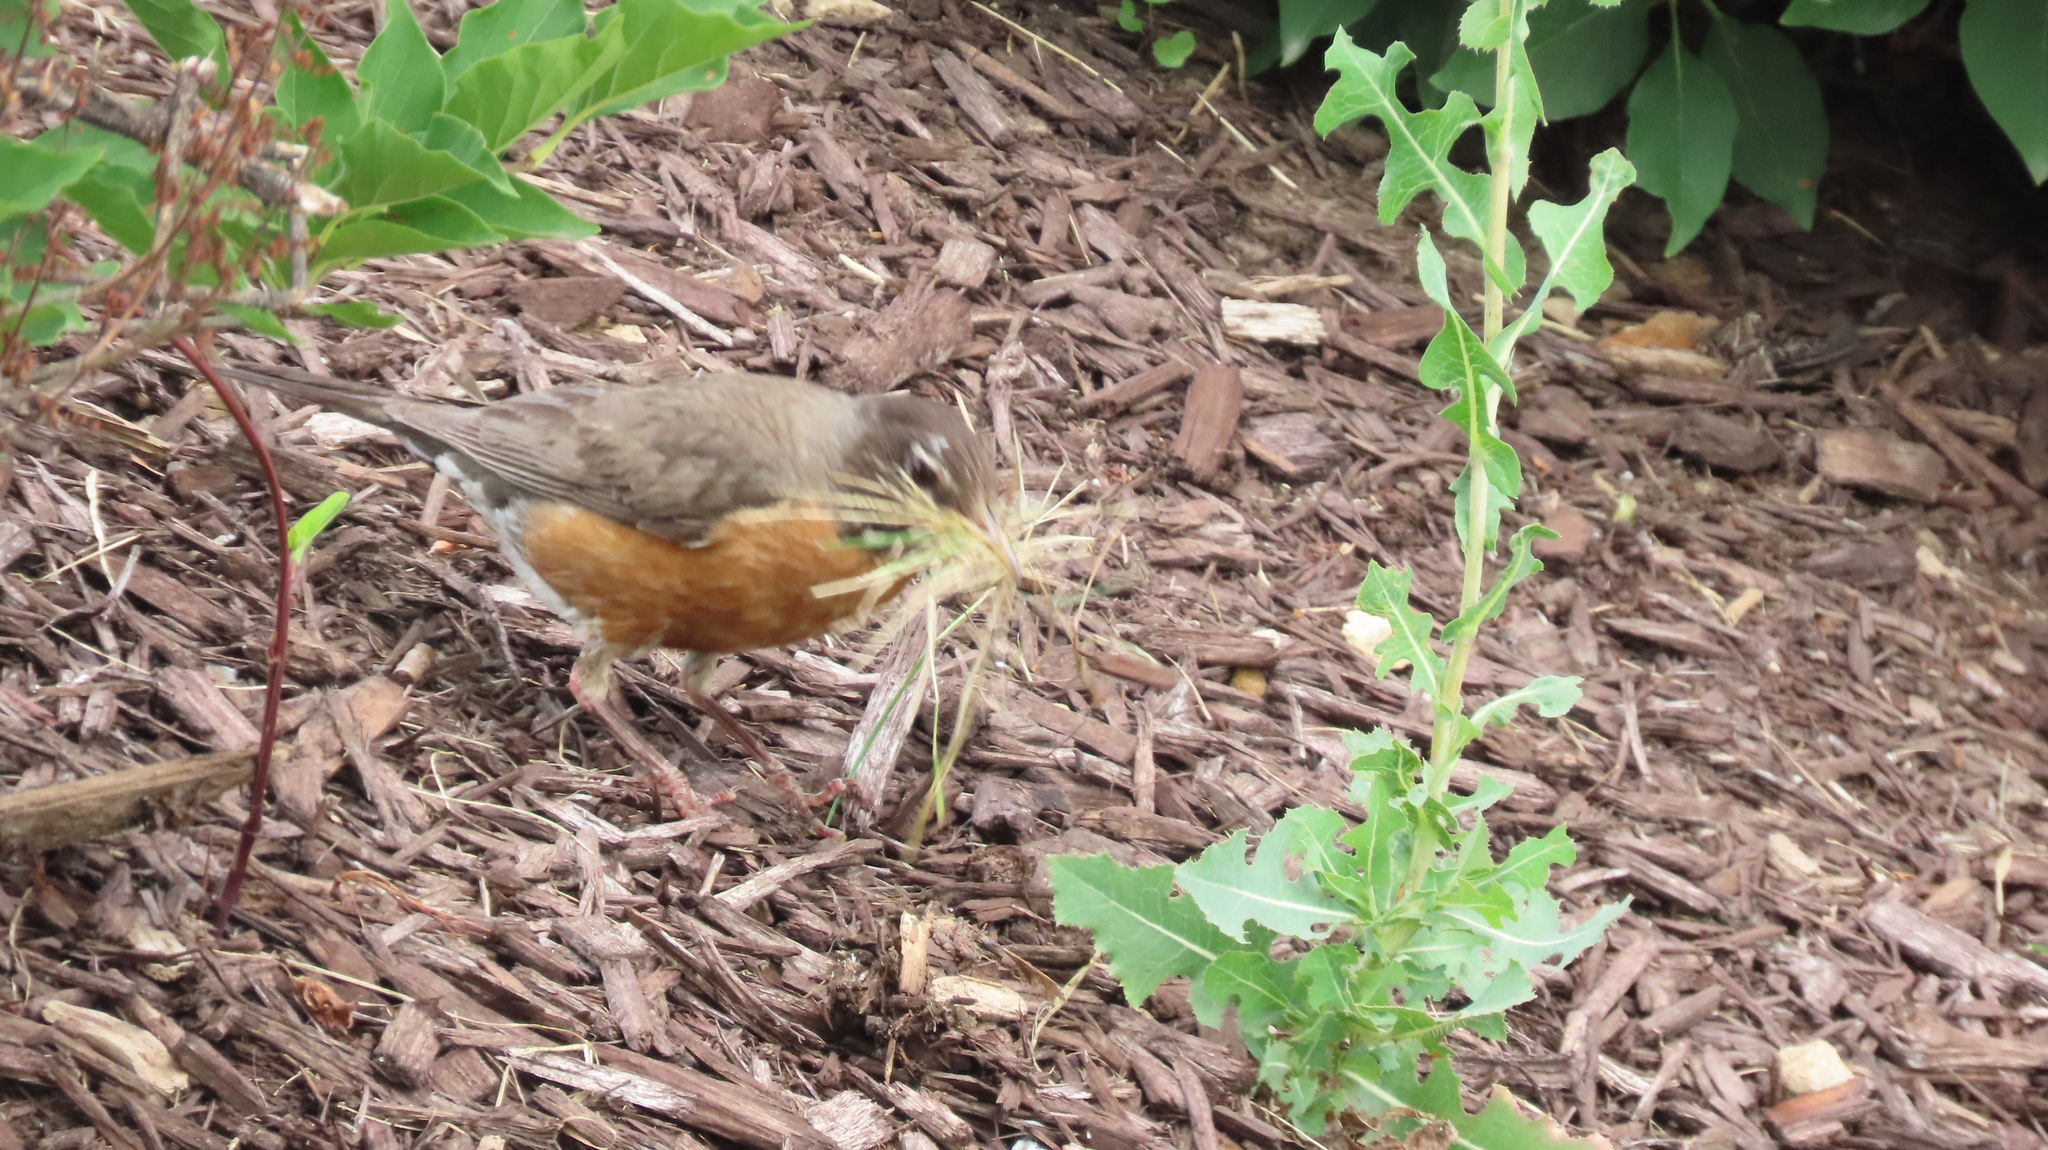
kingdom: Animalia
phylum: Chordata
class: Aves
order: Passeriformes
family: Turdidae
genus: Turdus
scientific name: Turdus migratorius
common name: American robin
